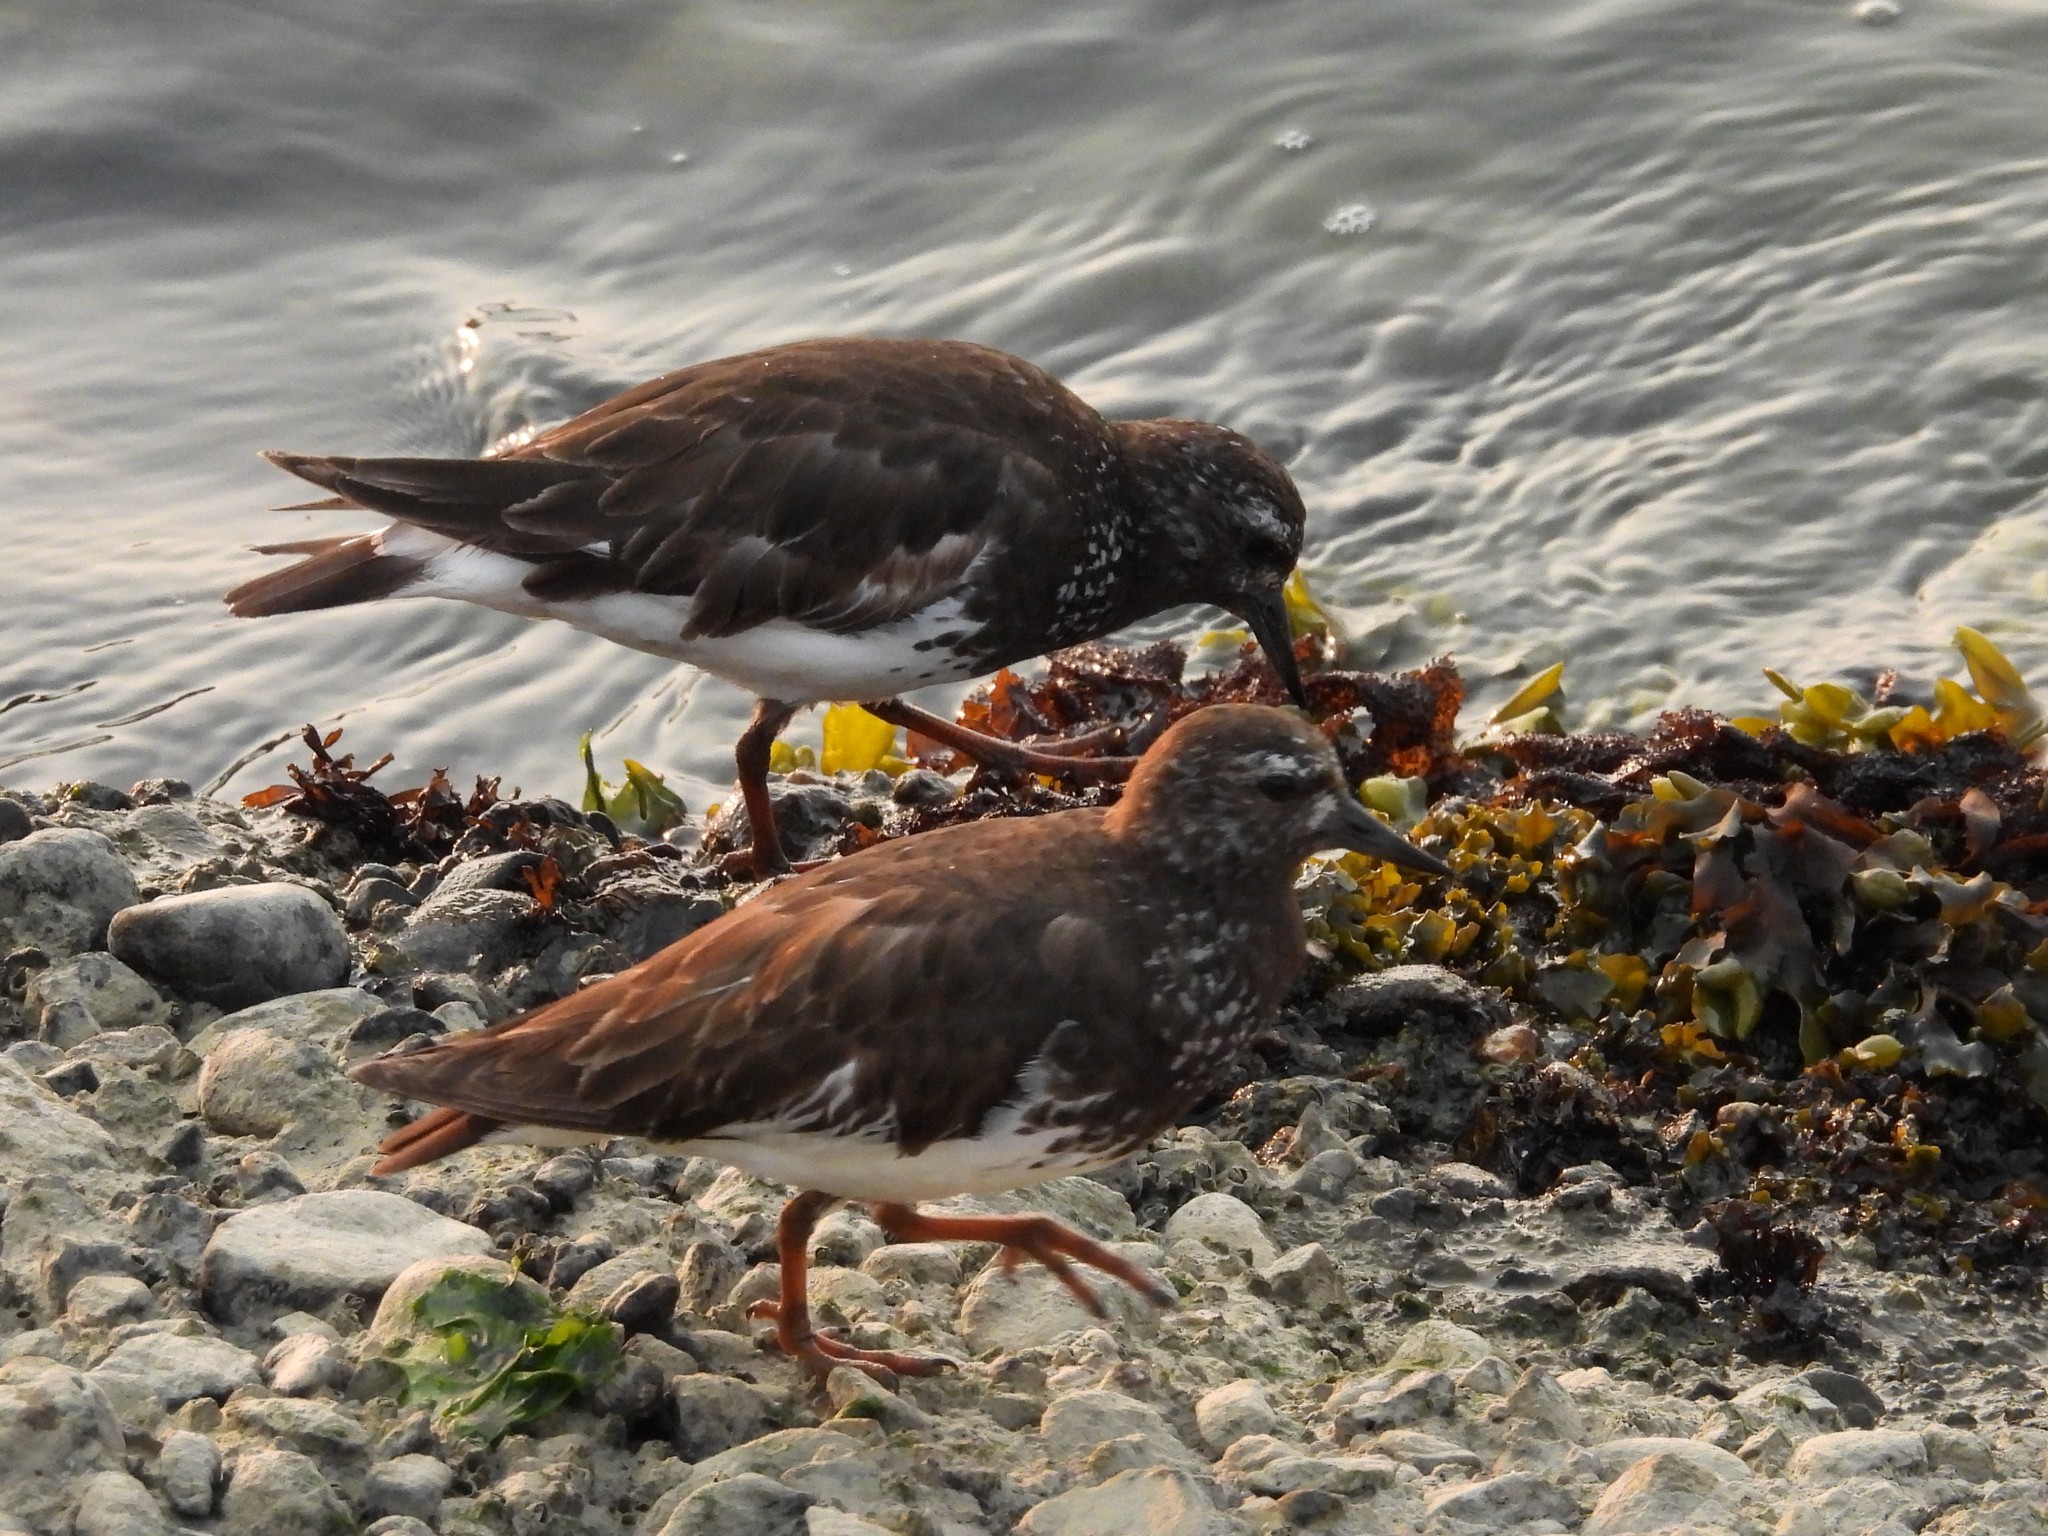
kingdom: Animalia
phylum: Chordata
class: Aves
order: Charadriiformes
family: Scolopacidae
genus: Arenaria
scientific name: Arenaria melanocephala
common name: Black turnstone
